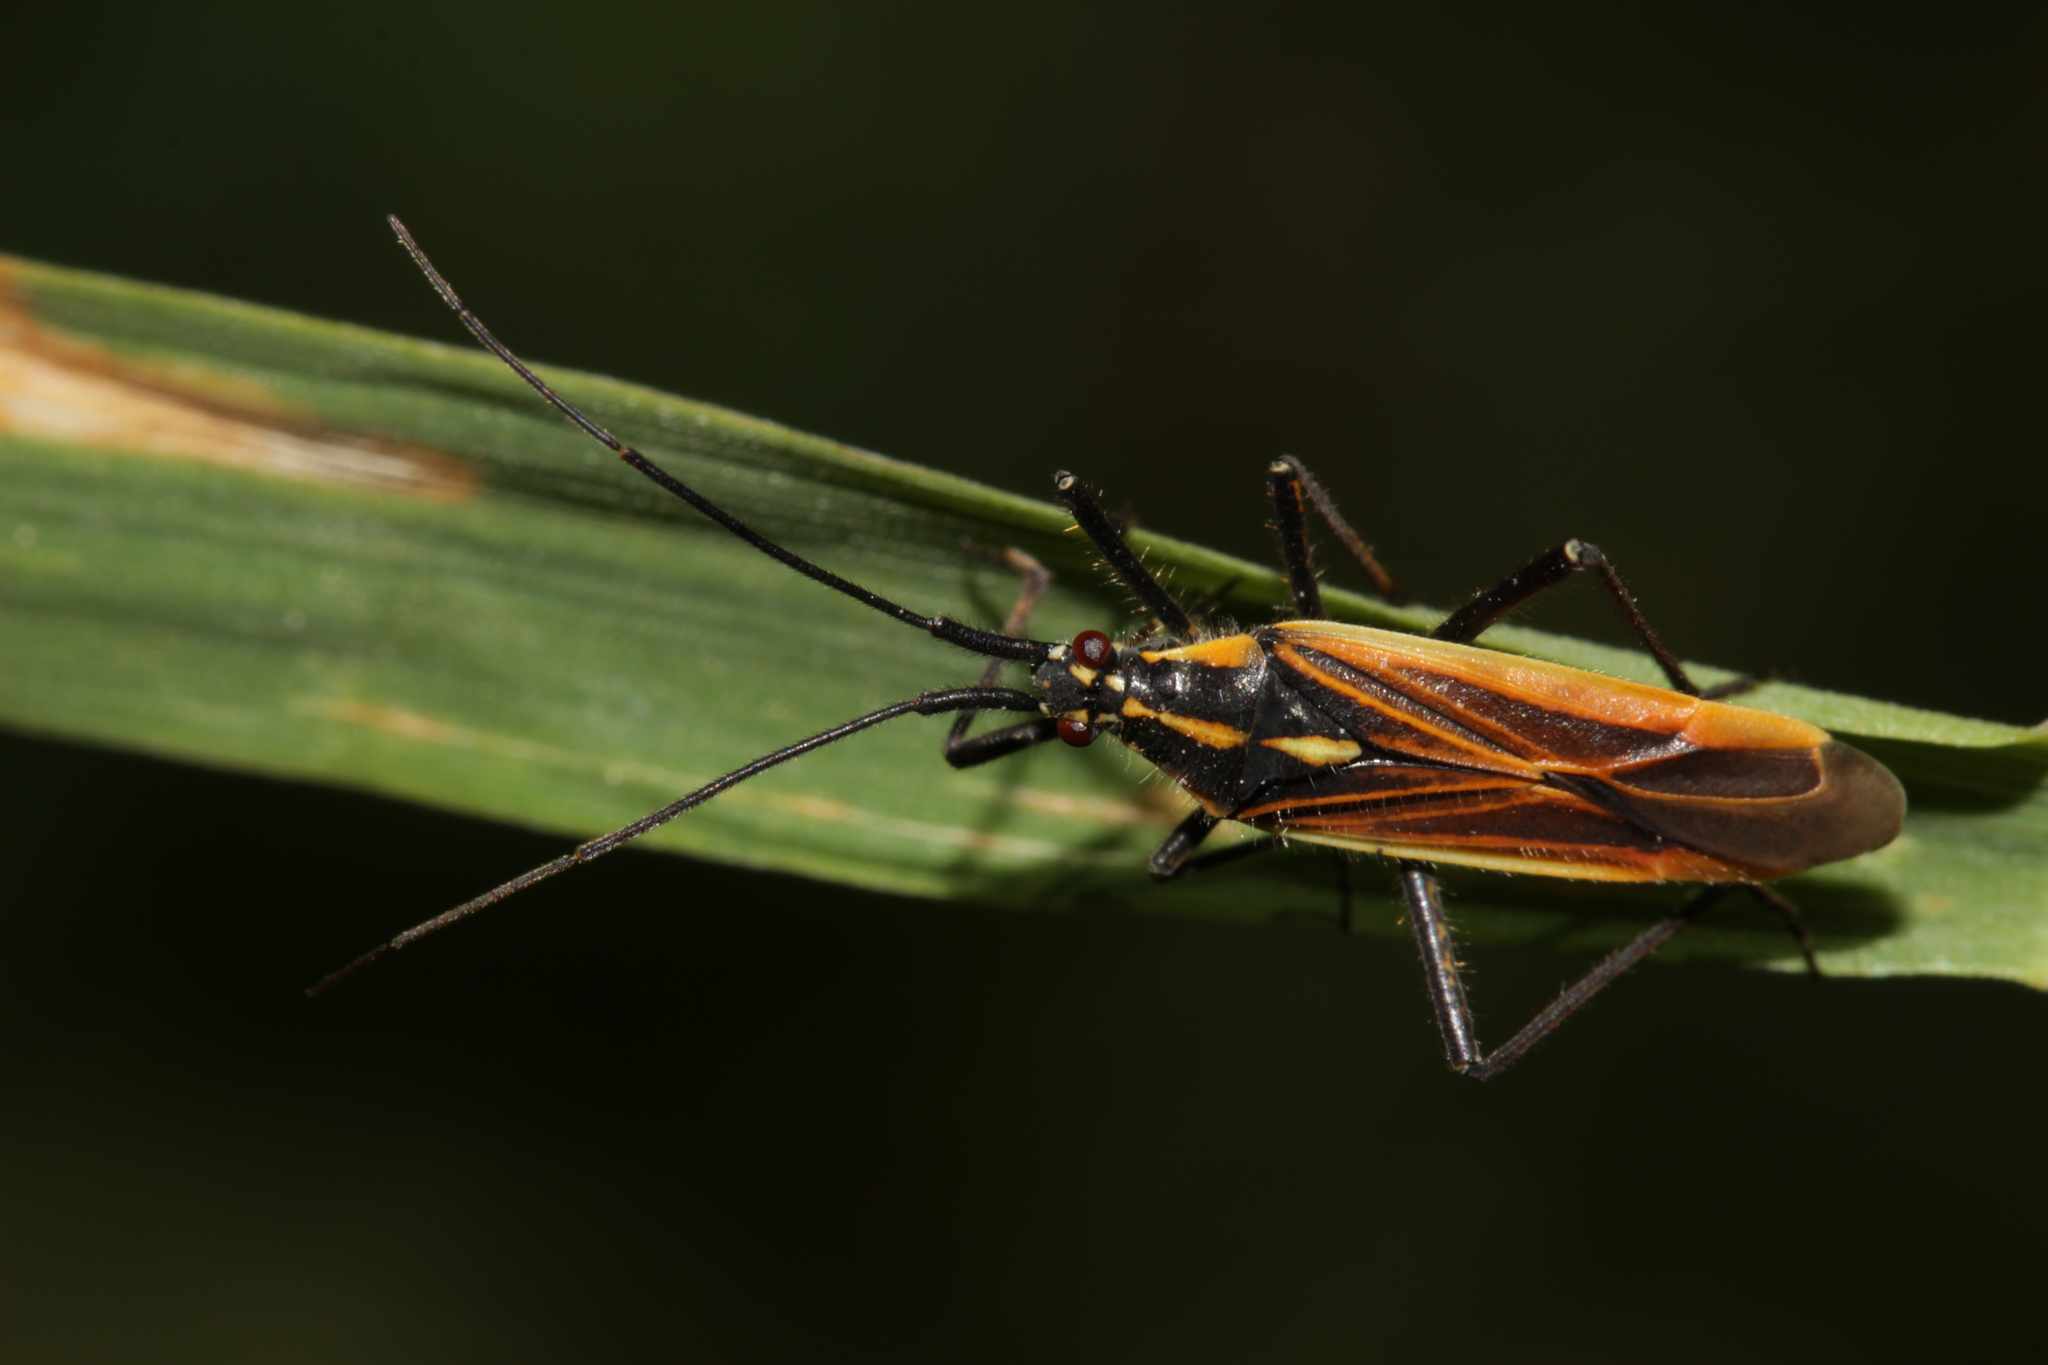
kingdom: Animalia
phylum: Arthropoda
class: Insecta
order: Hemiptera
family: Miridae
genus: Leptopterna
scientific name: Leptopterna dolabrata
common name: Meadow plant bug
